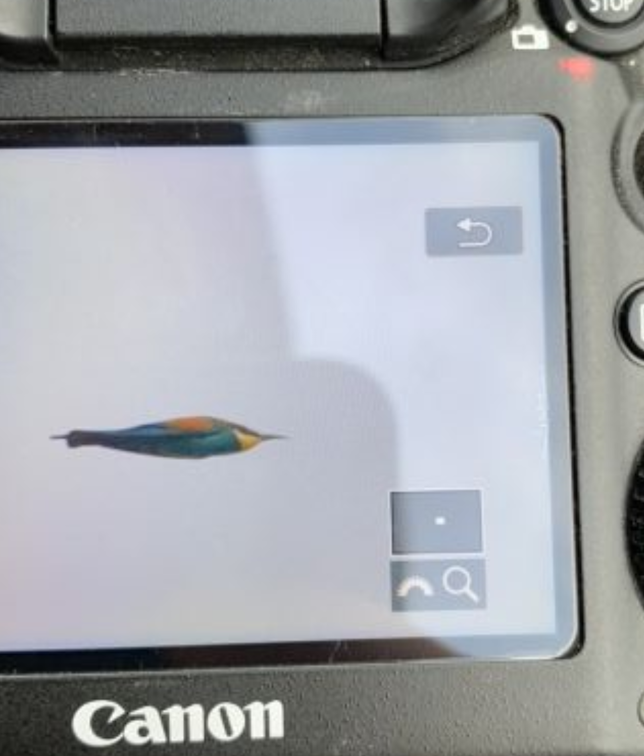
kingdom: Animalia
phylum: Chordata
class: Aves
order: Coraciiformes
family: Meropidae
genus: Merops
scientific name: Merops apiaster
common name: European bee-eater
